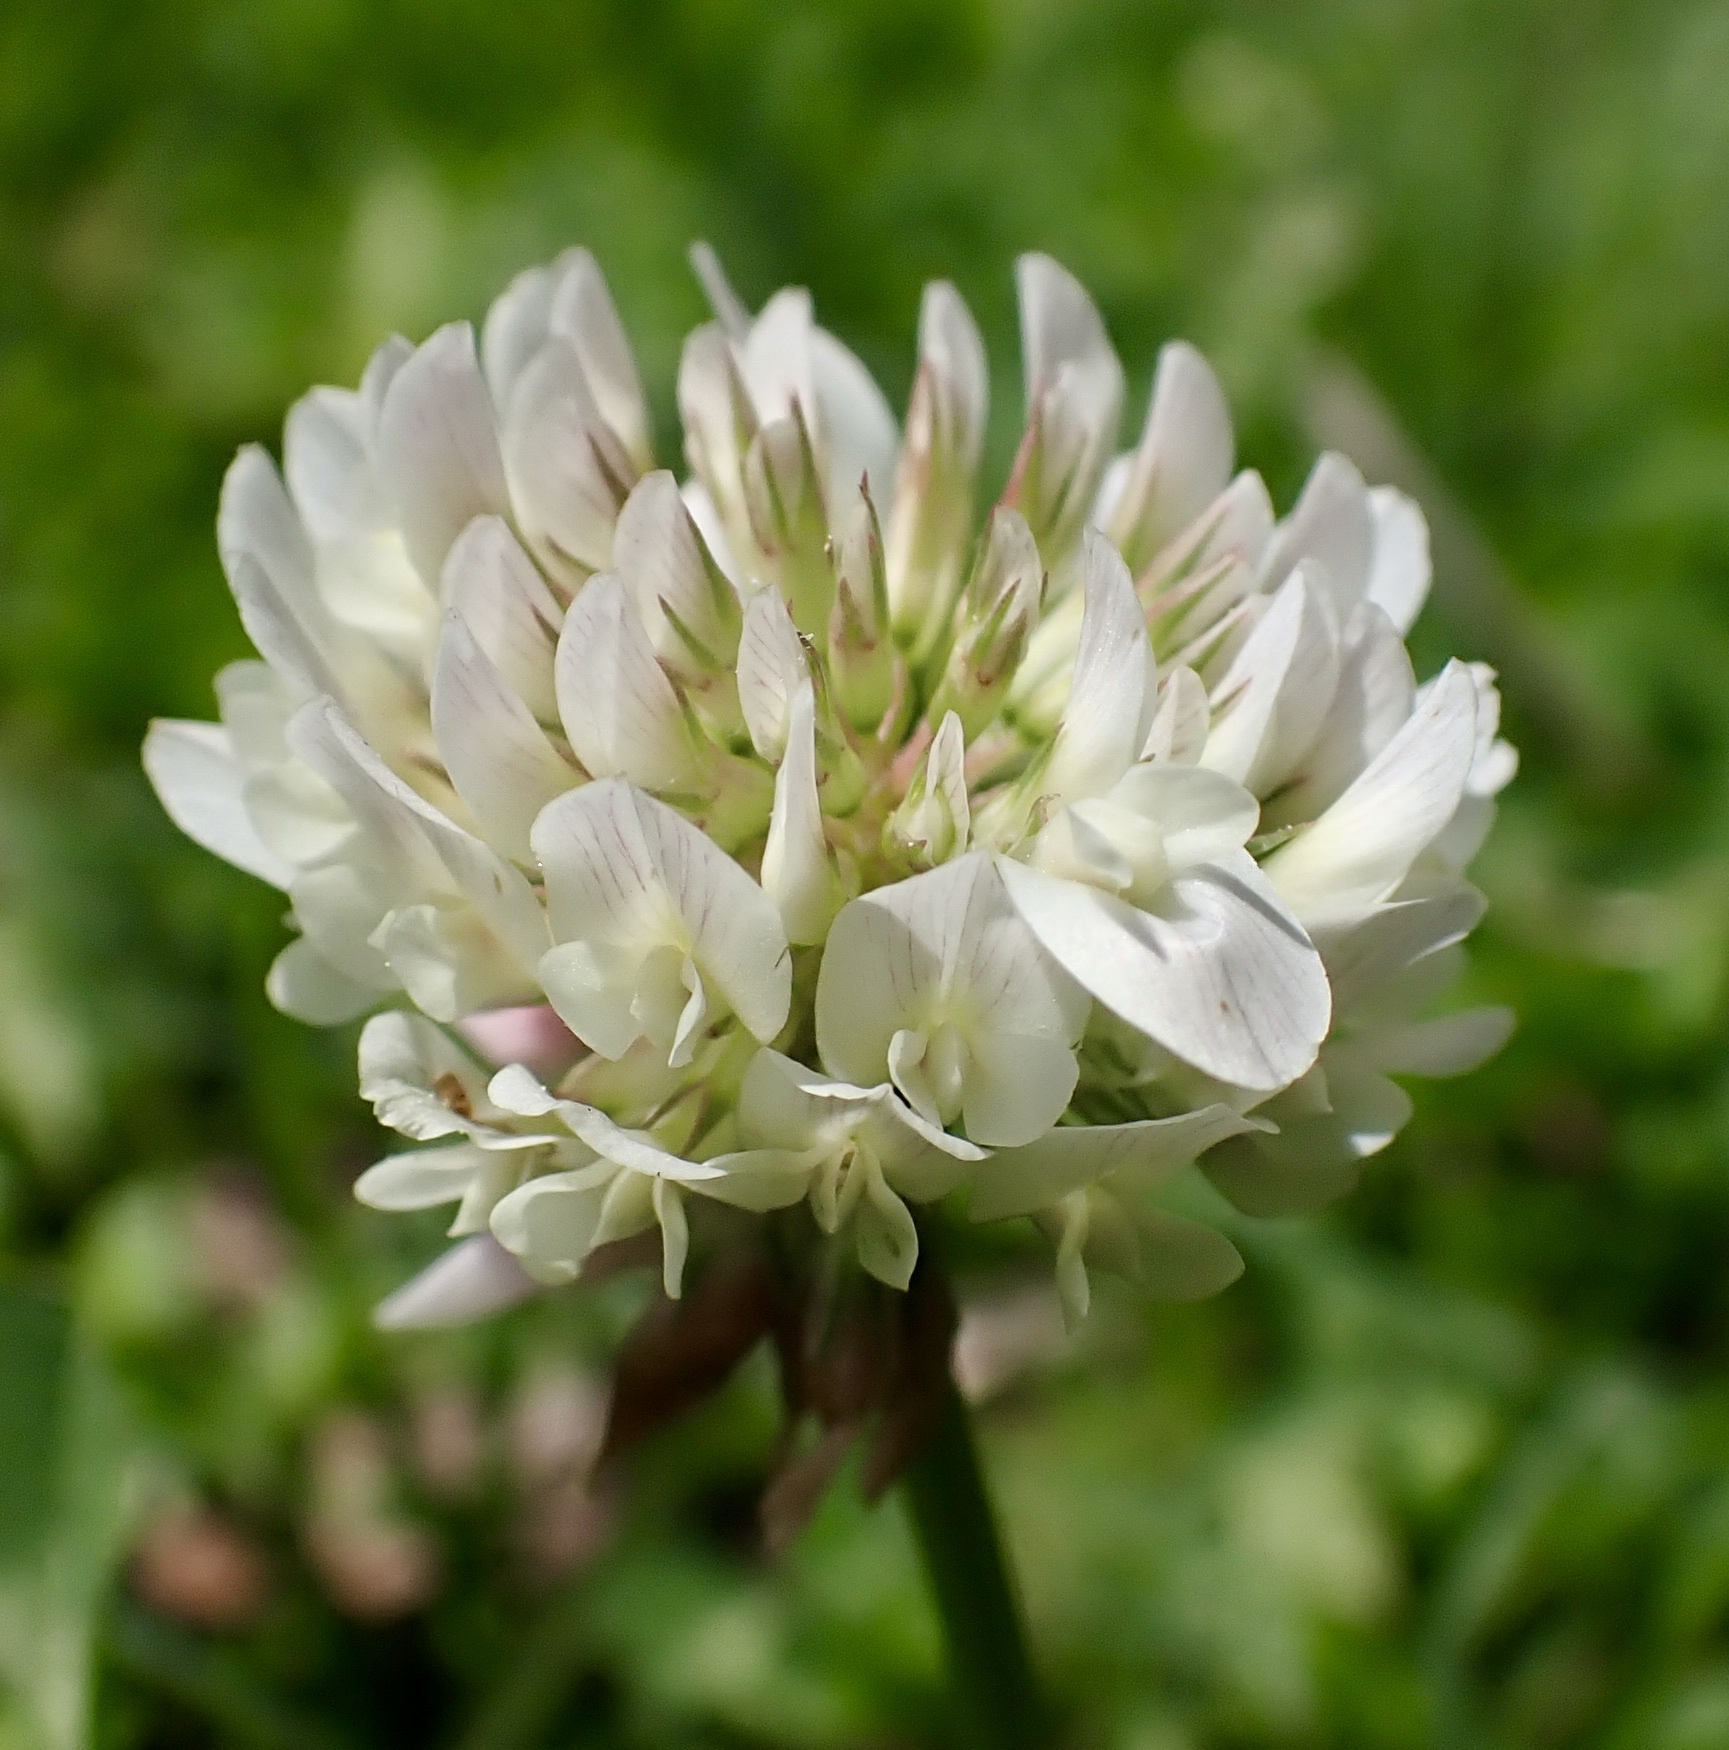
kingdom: Plantae
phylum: Tracheophyta
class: Magnoliopsida
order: Fabales
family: Fabaceae
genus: Trifolium
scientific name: Trifolium repens
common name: White clover
